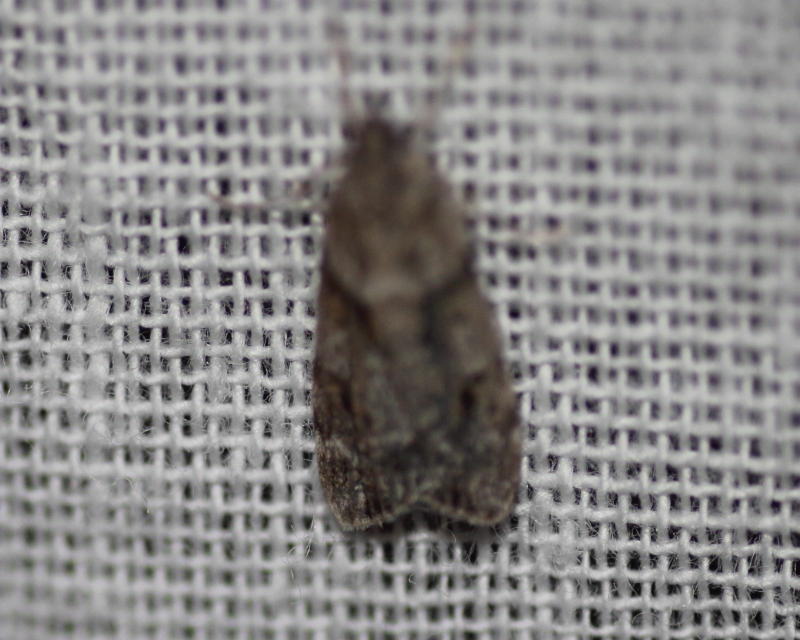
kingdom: Animalia
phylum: Arthropoda
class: Insecta
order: Lepidoptera
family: Crambidae
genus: Scoparia
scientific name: Scoparia biplagialis
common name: Double-striped scoparia moth
